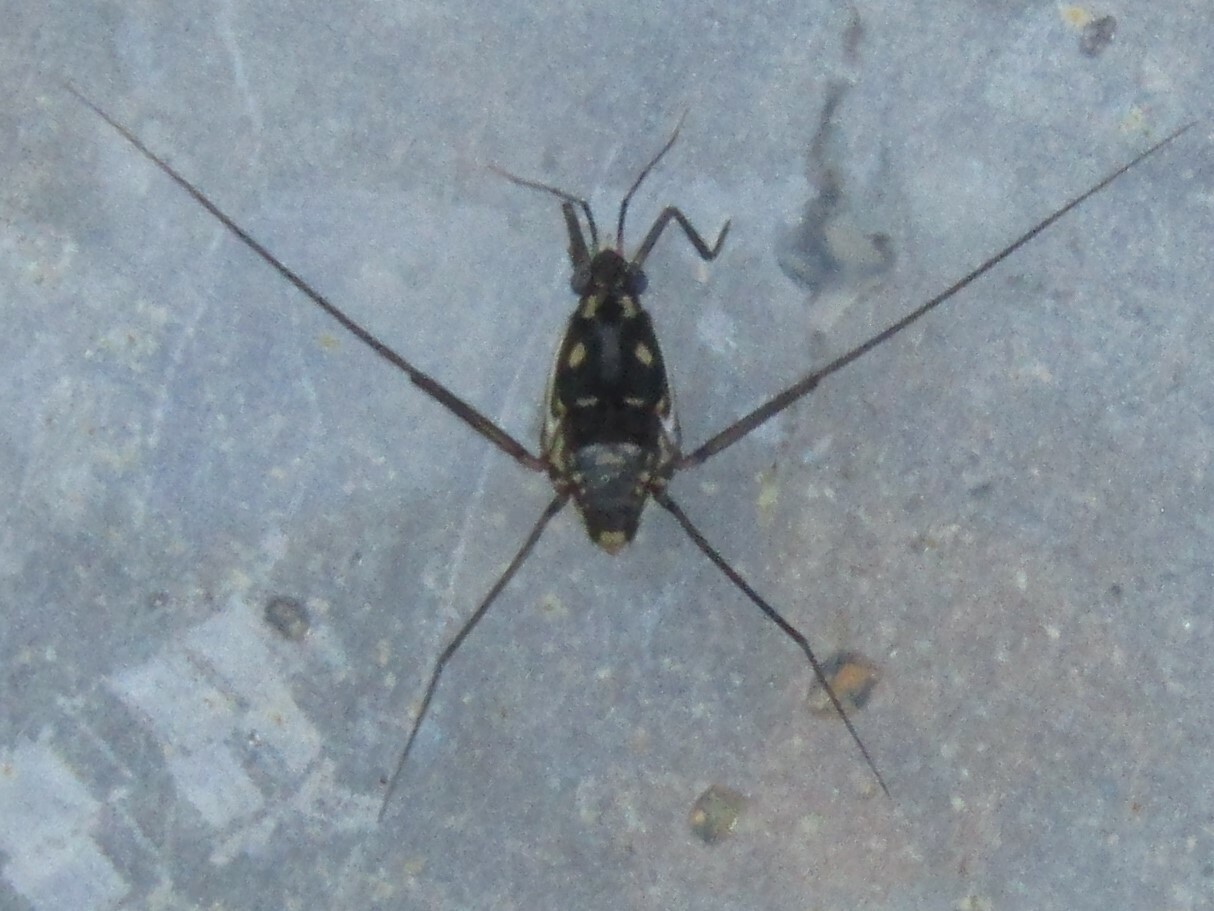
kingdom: Animalia
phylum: Arthropoda
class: Insecta
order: Hemiptera
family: Gerridae
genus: Trepobates
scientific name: Trepobates subnitidus
